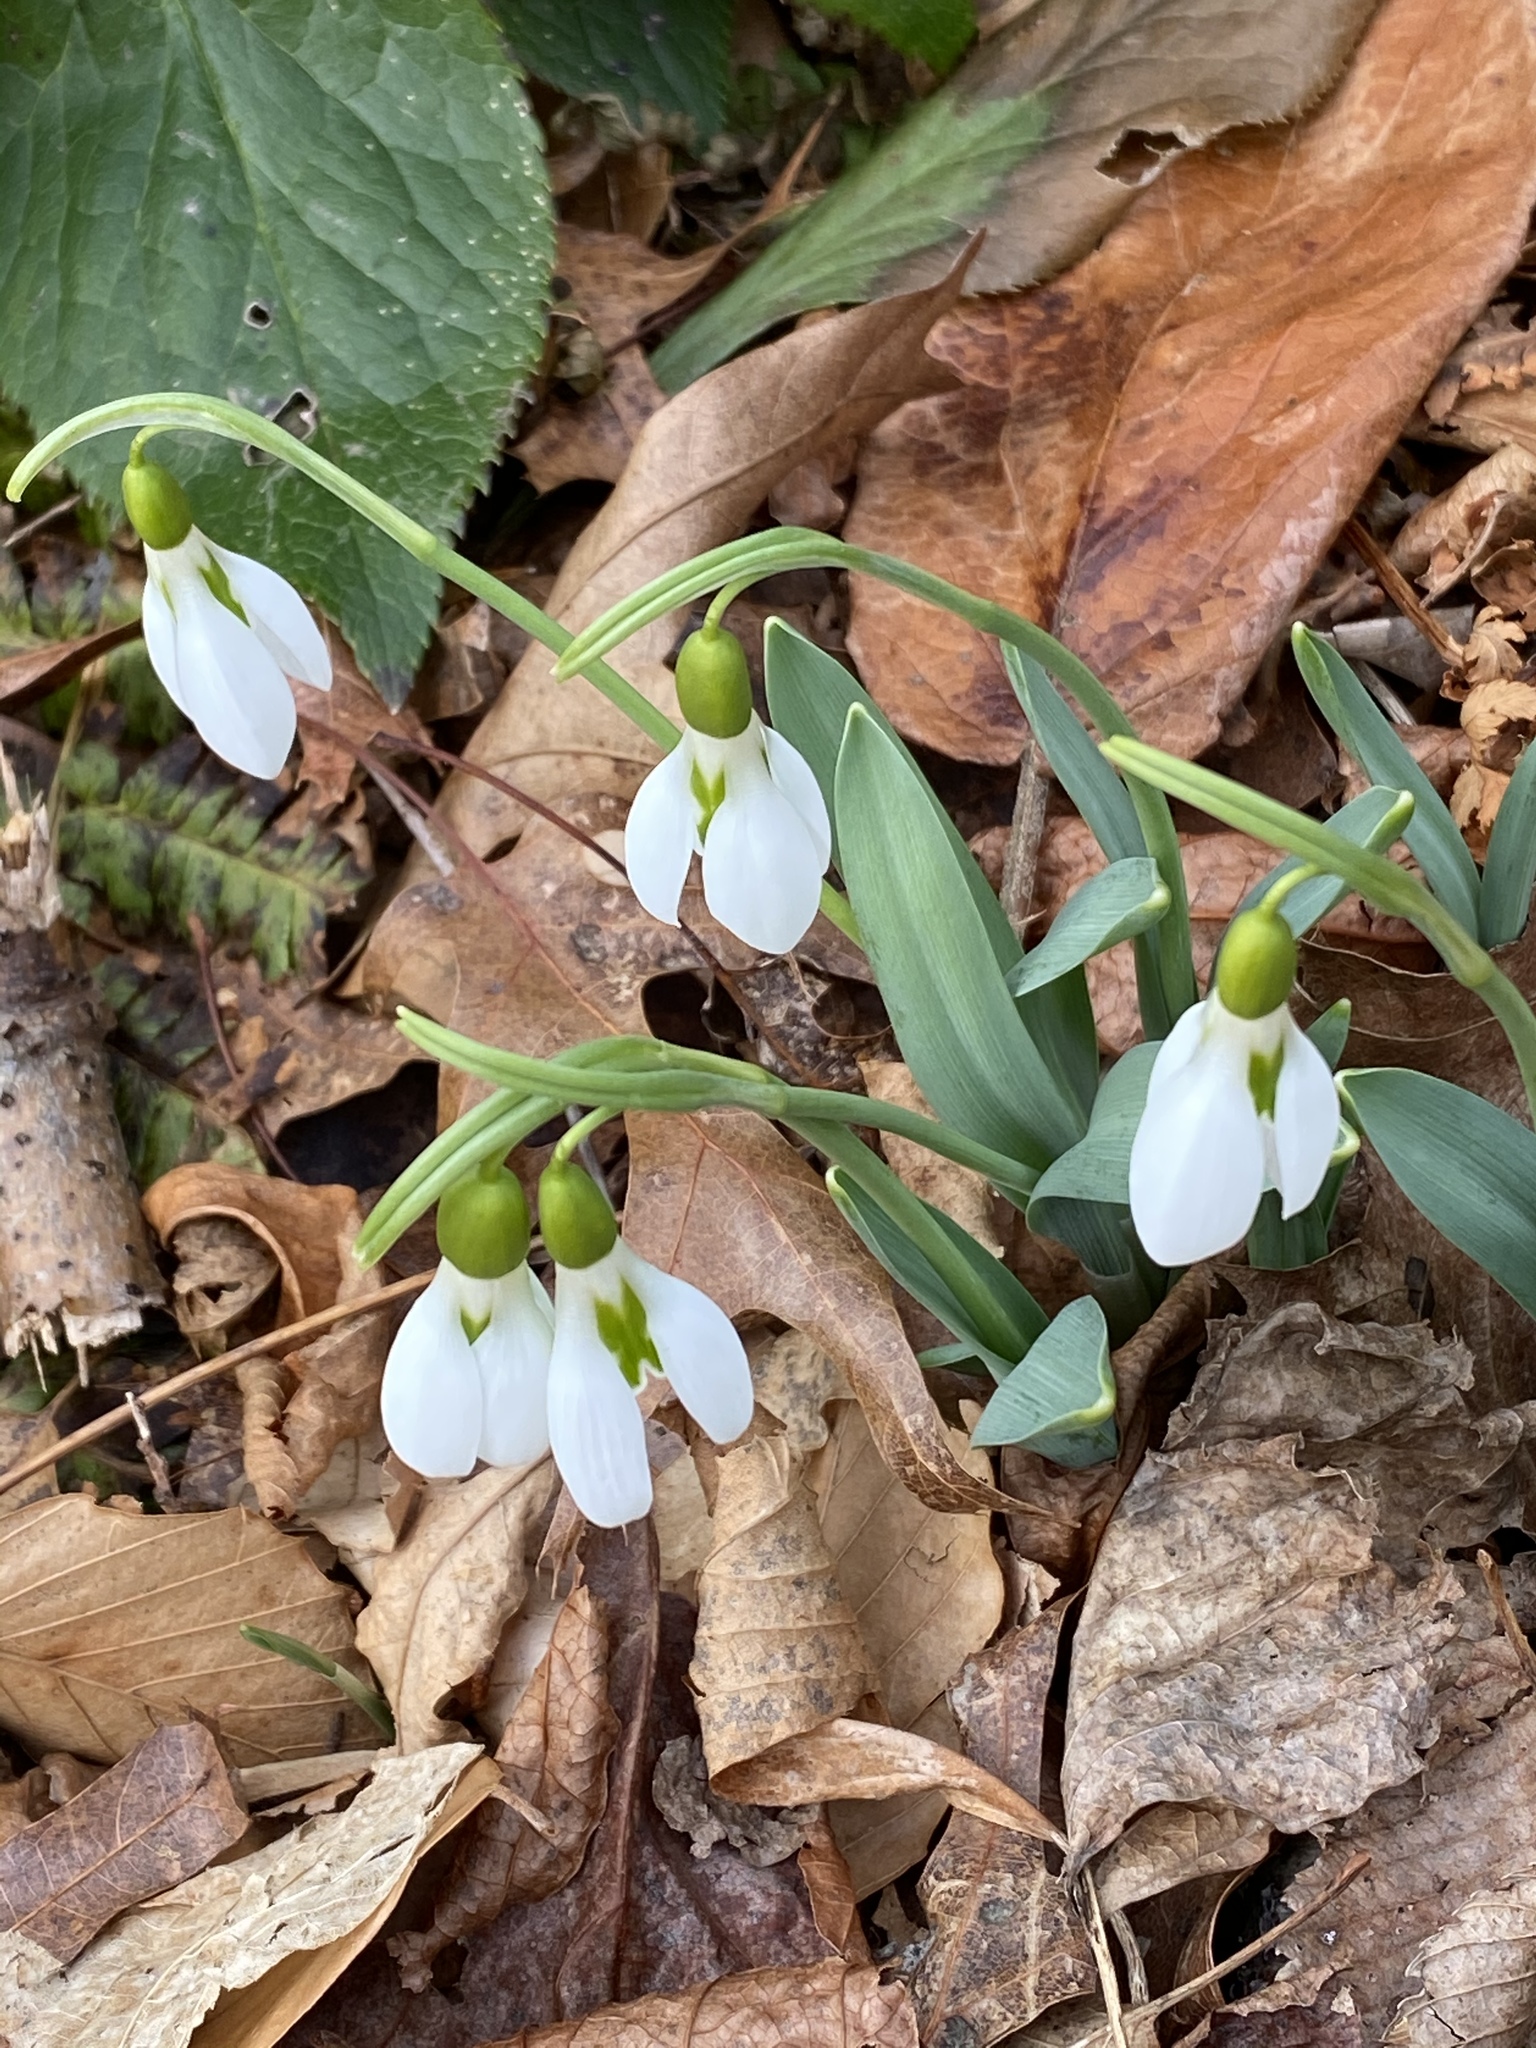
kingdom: Plantae
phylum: Tracheophyta
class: Liliopsida
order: Asparagales
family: Amaryllidaceae
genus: Galanthus
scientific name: Galanthus elwesii
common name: Greater snowdrop
